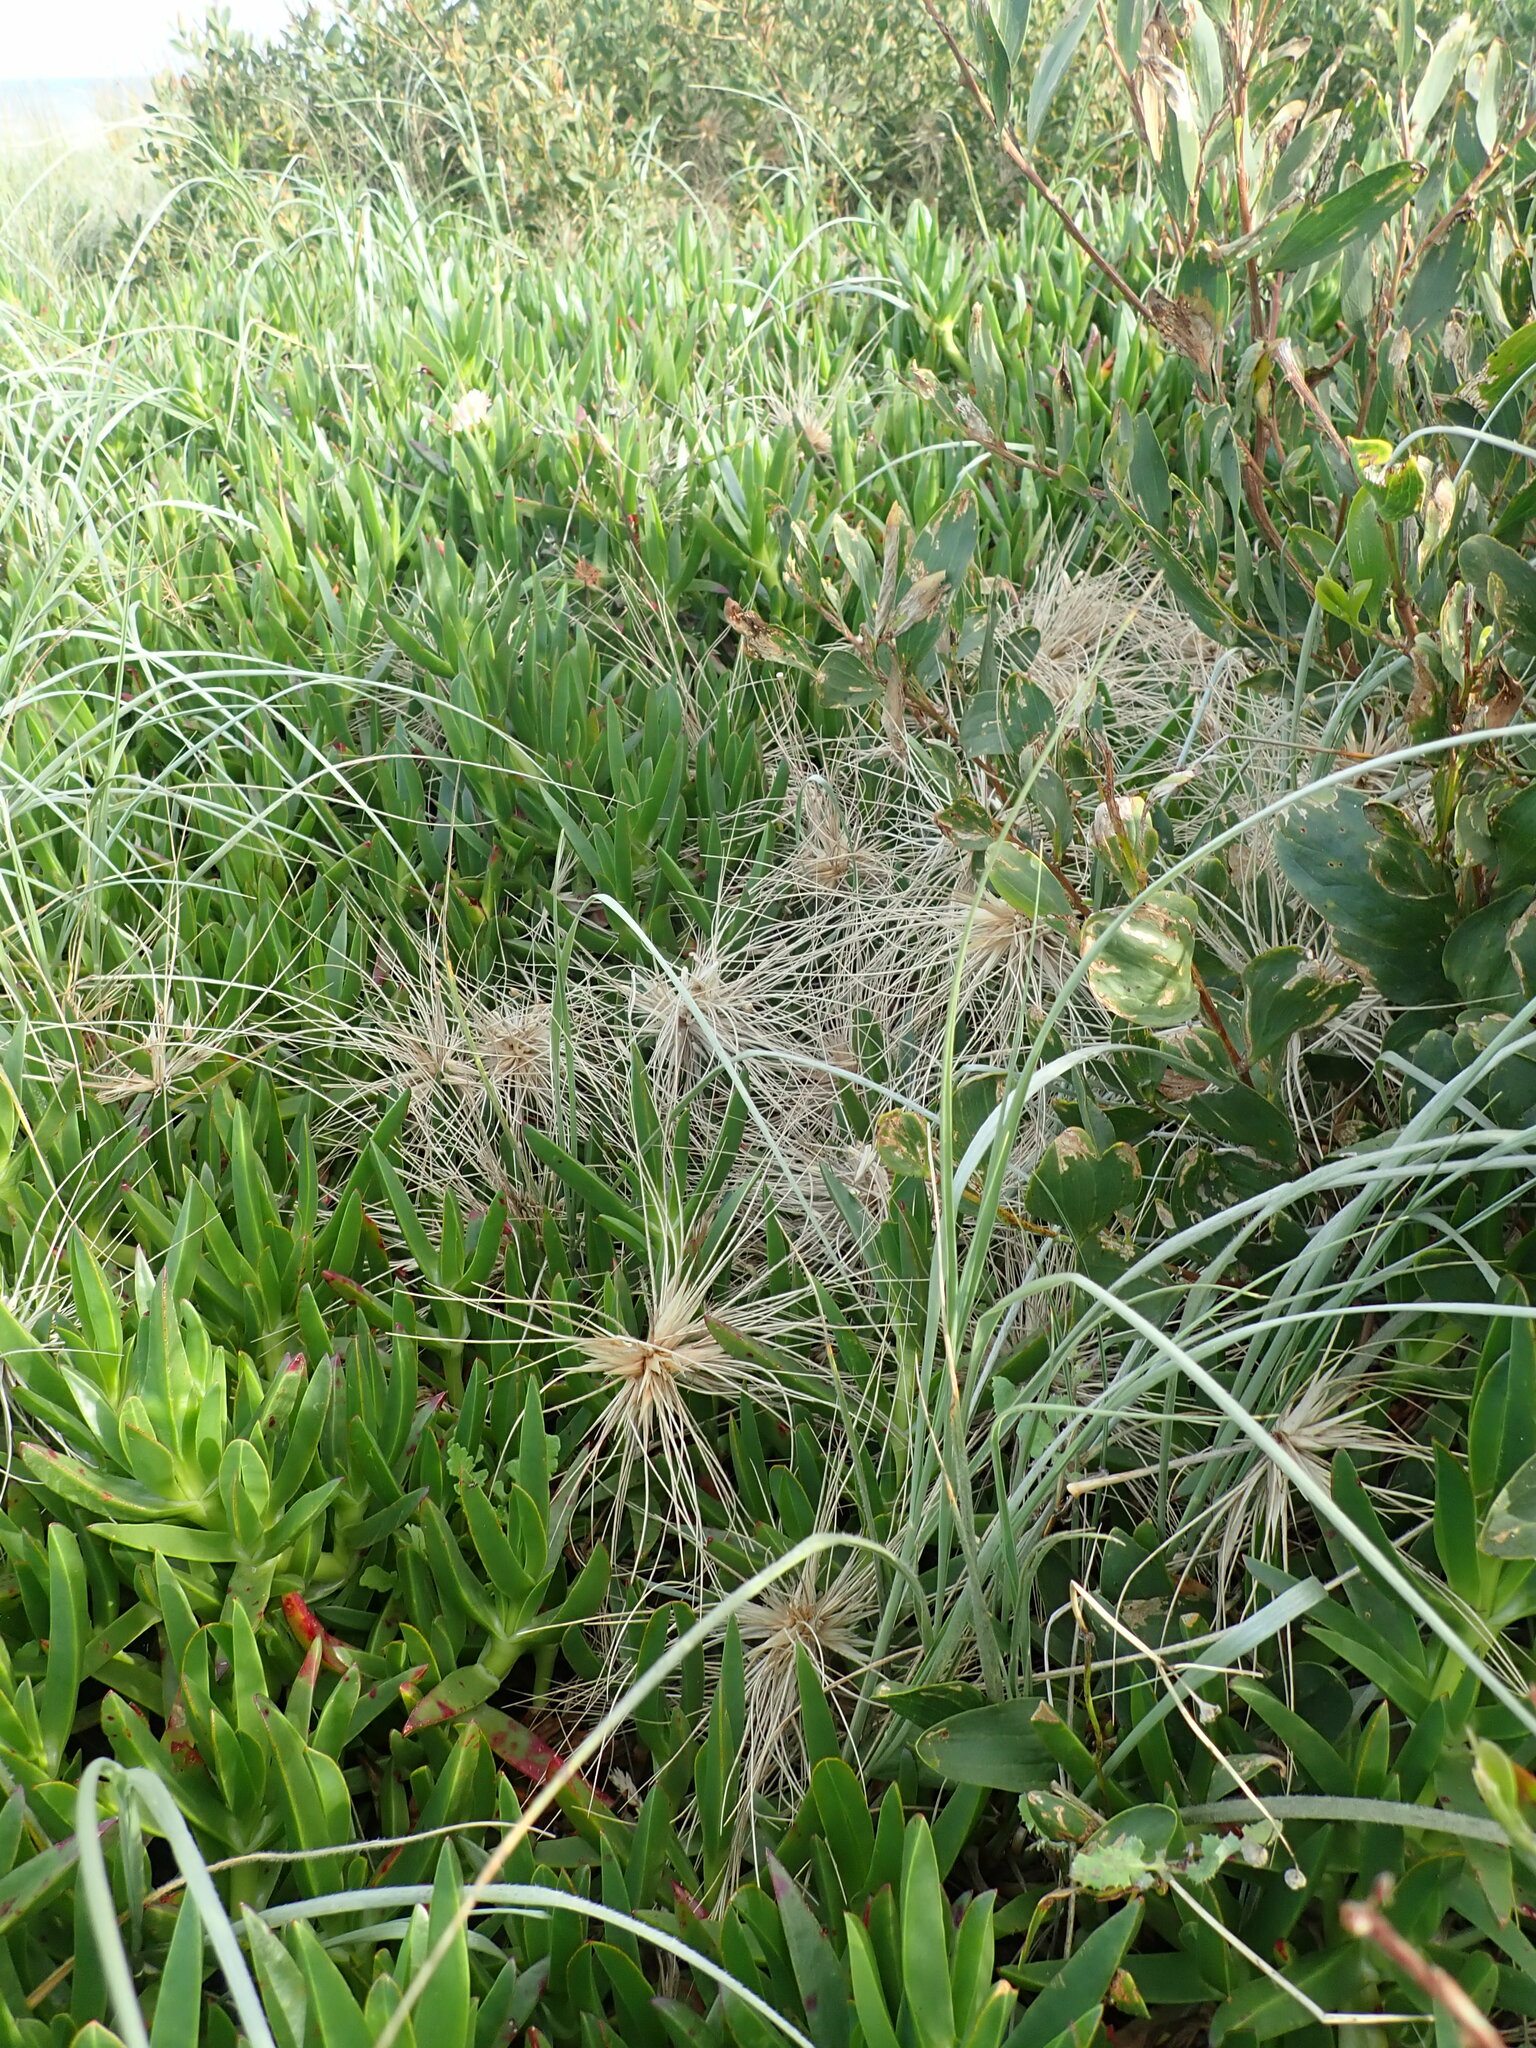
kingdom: Plantae
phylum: Tracheophyta
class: Magnoliopsida
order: Caryophyllales
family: Aizoaceae
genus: Carpobrotus
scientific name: Carpobrotus edulis
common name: Hottentot-fig
